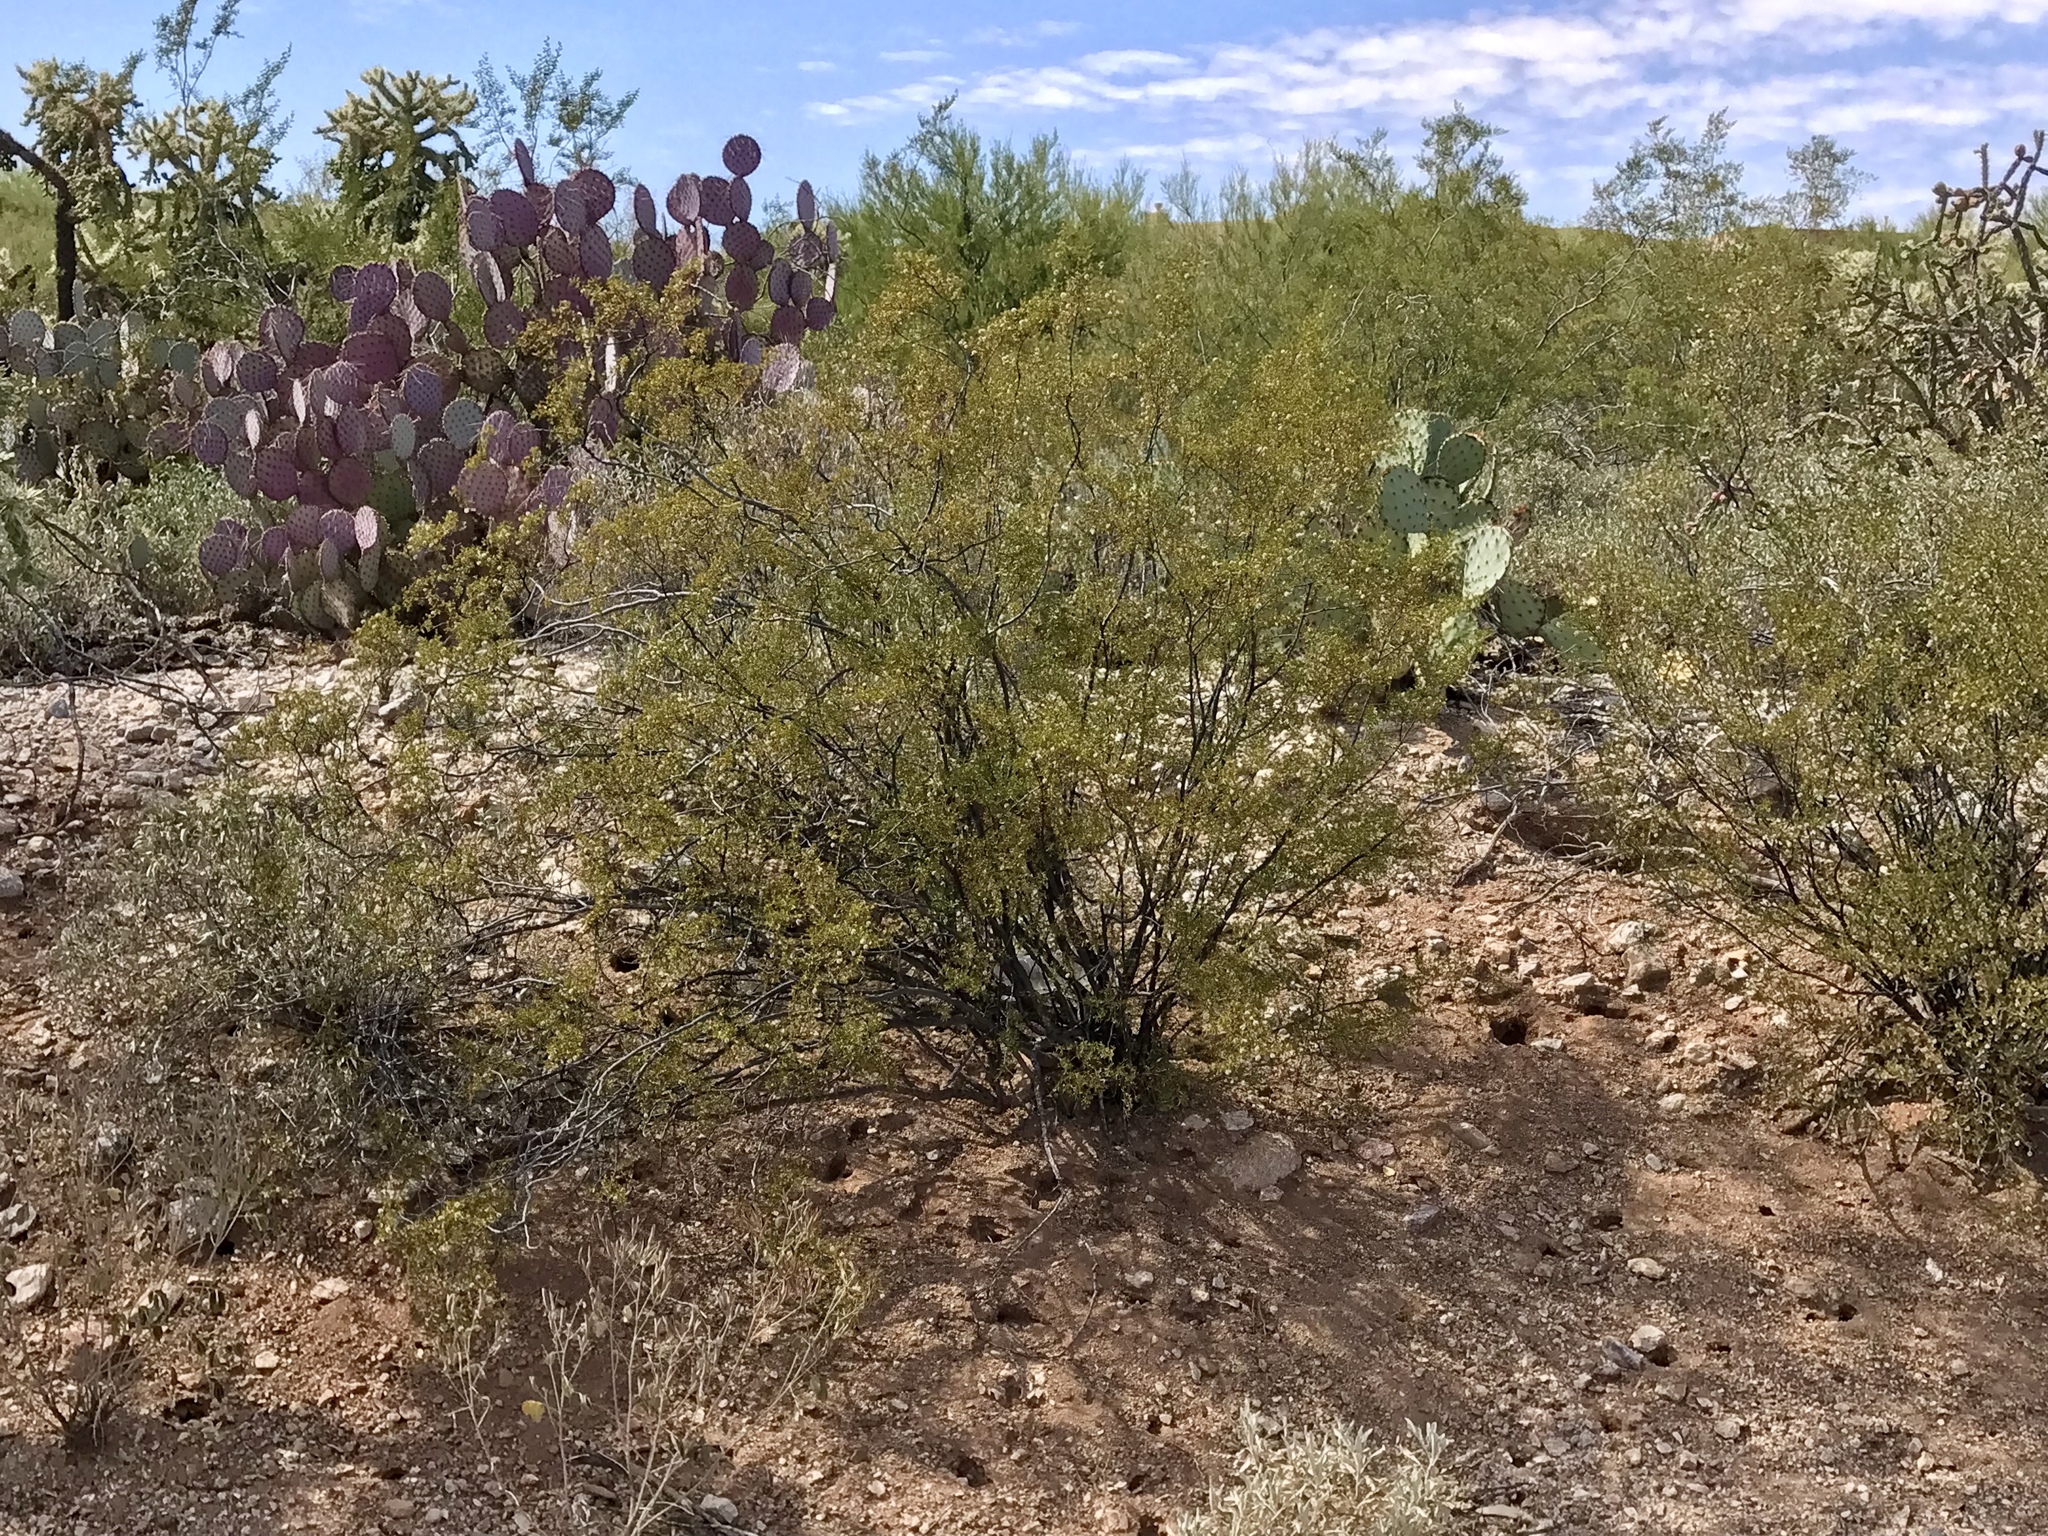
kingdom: Plantae
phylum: Tracheophyta
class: Magnoliopsida
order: Zygophyllales
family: Zygophyllaceae
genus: Larrea
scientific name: Larrea tridentata
